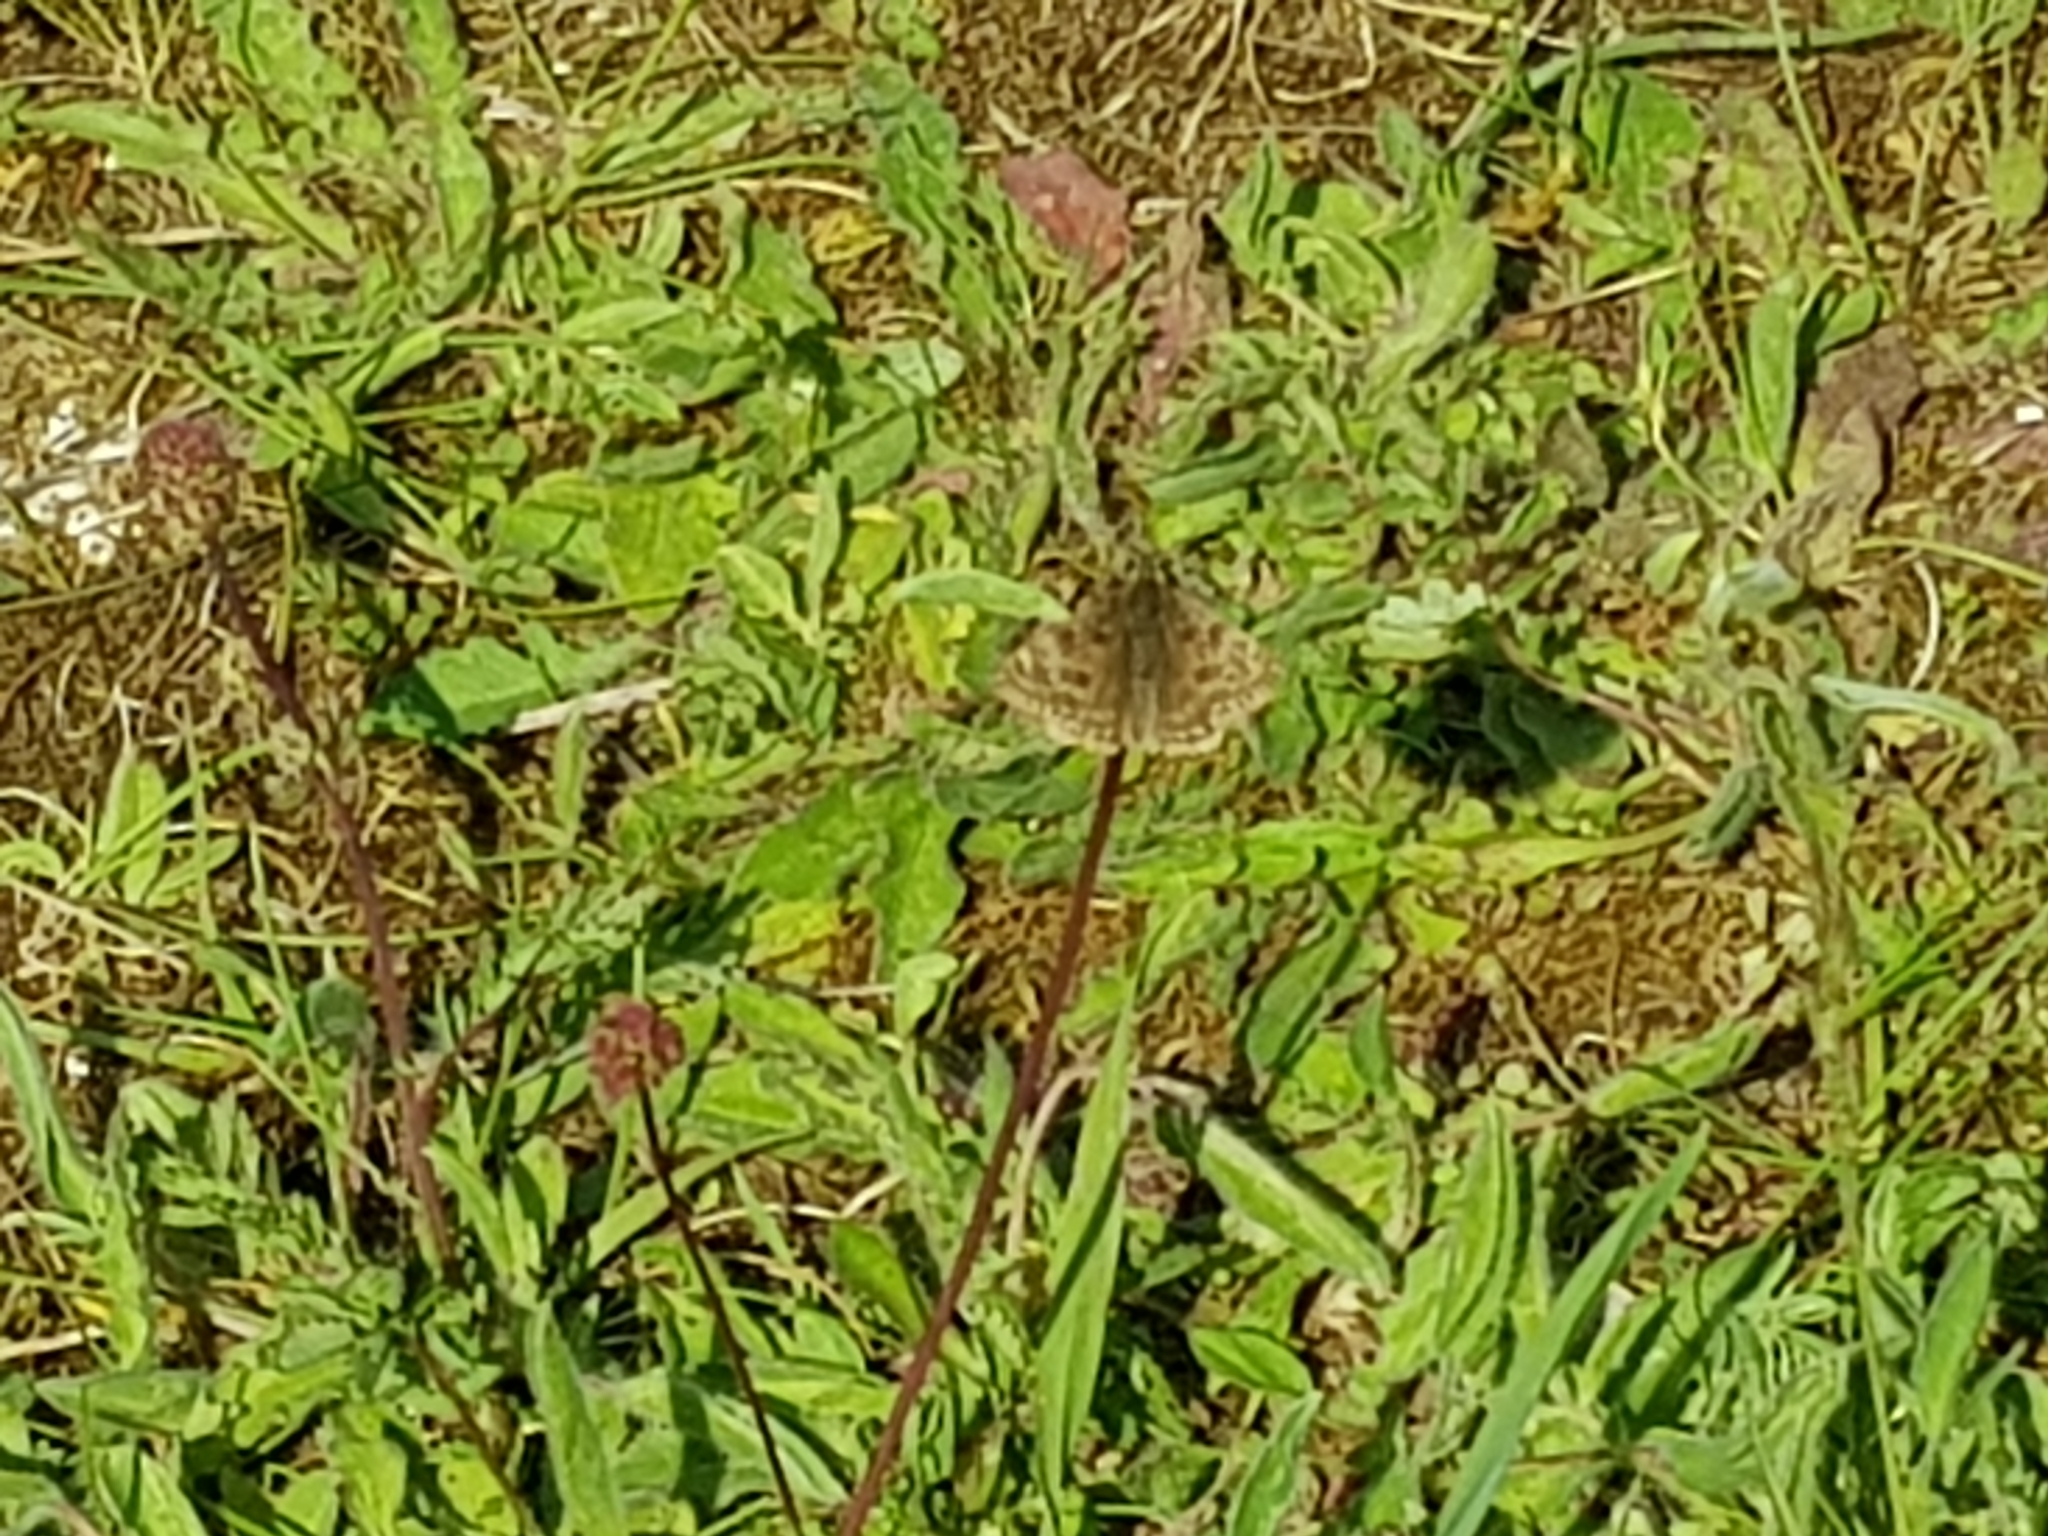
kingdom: Animalia
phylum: Arthropoda
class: Insecta
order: Lepidoptera
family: Hesperiidae
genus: Erynnis
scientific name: Erynnis tages
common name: Dingy skipper
